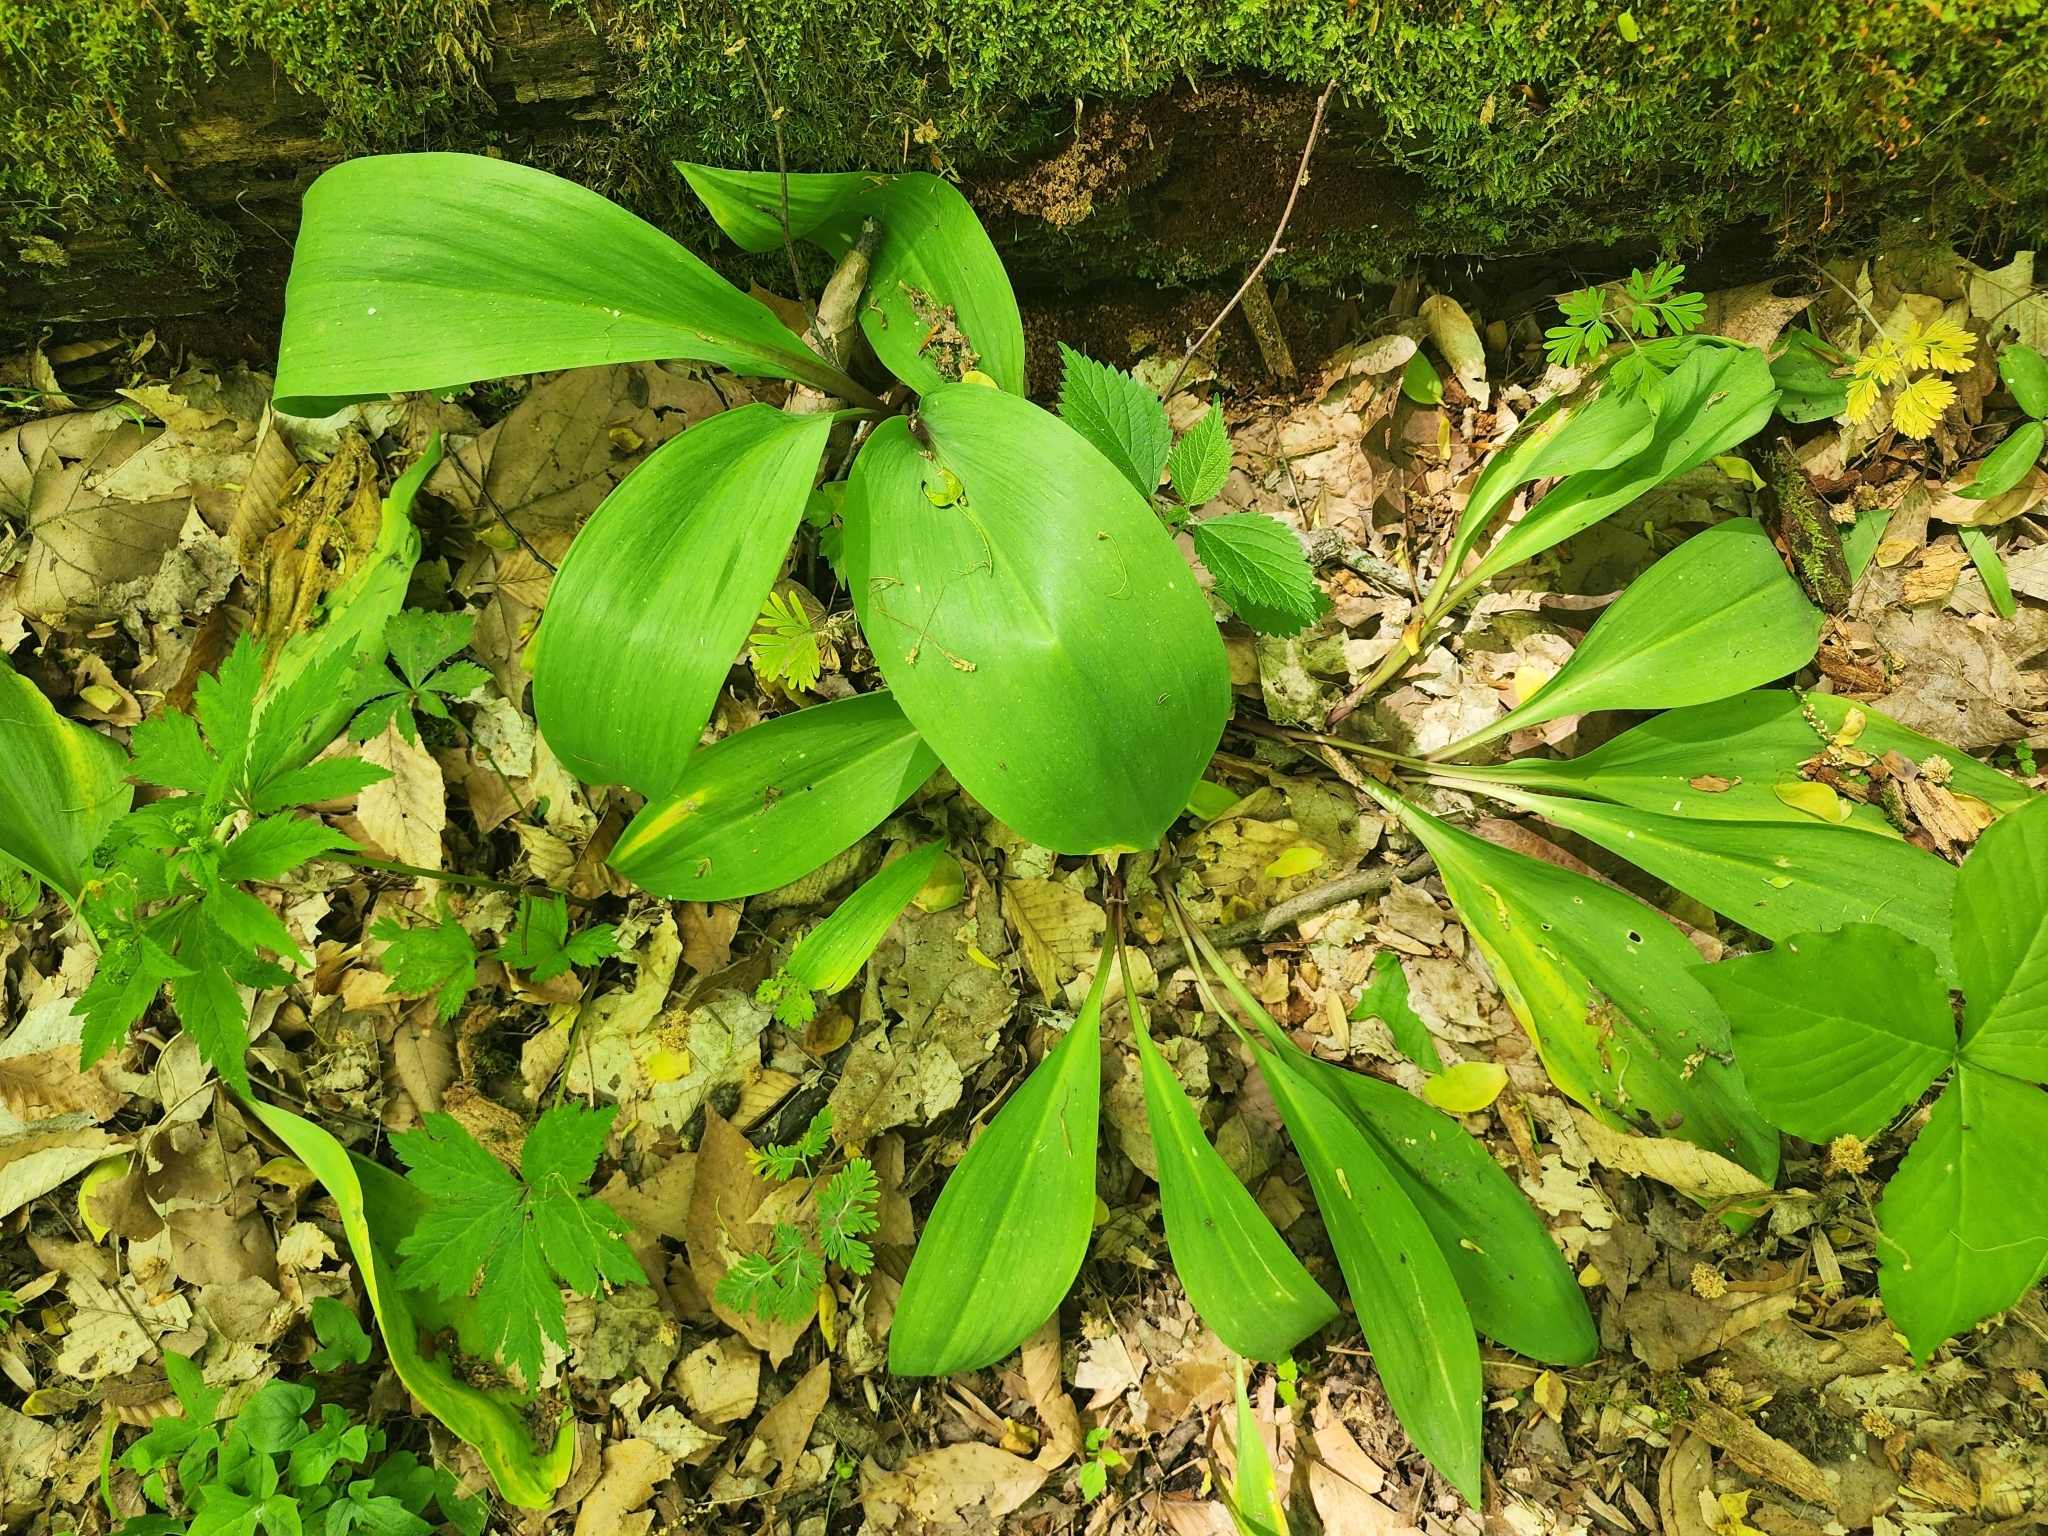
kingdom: Plantae
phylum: Tracheophyta
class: Liliopsida
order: Asparagales
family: Amaryllidaceae
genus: Allium
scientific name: Allium tricoccum
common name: Ramp
